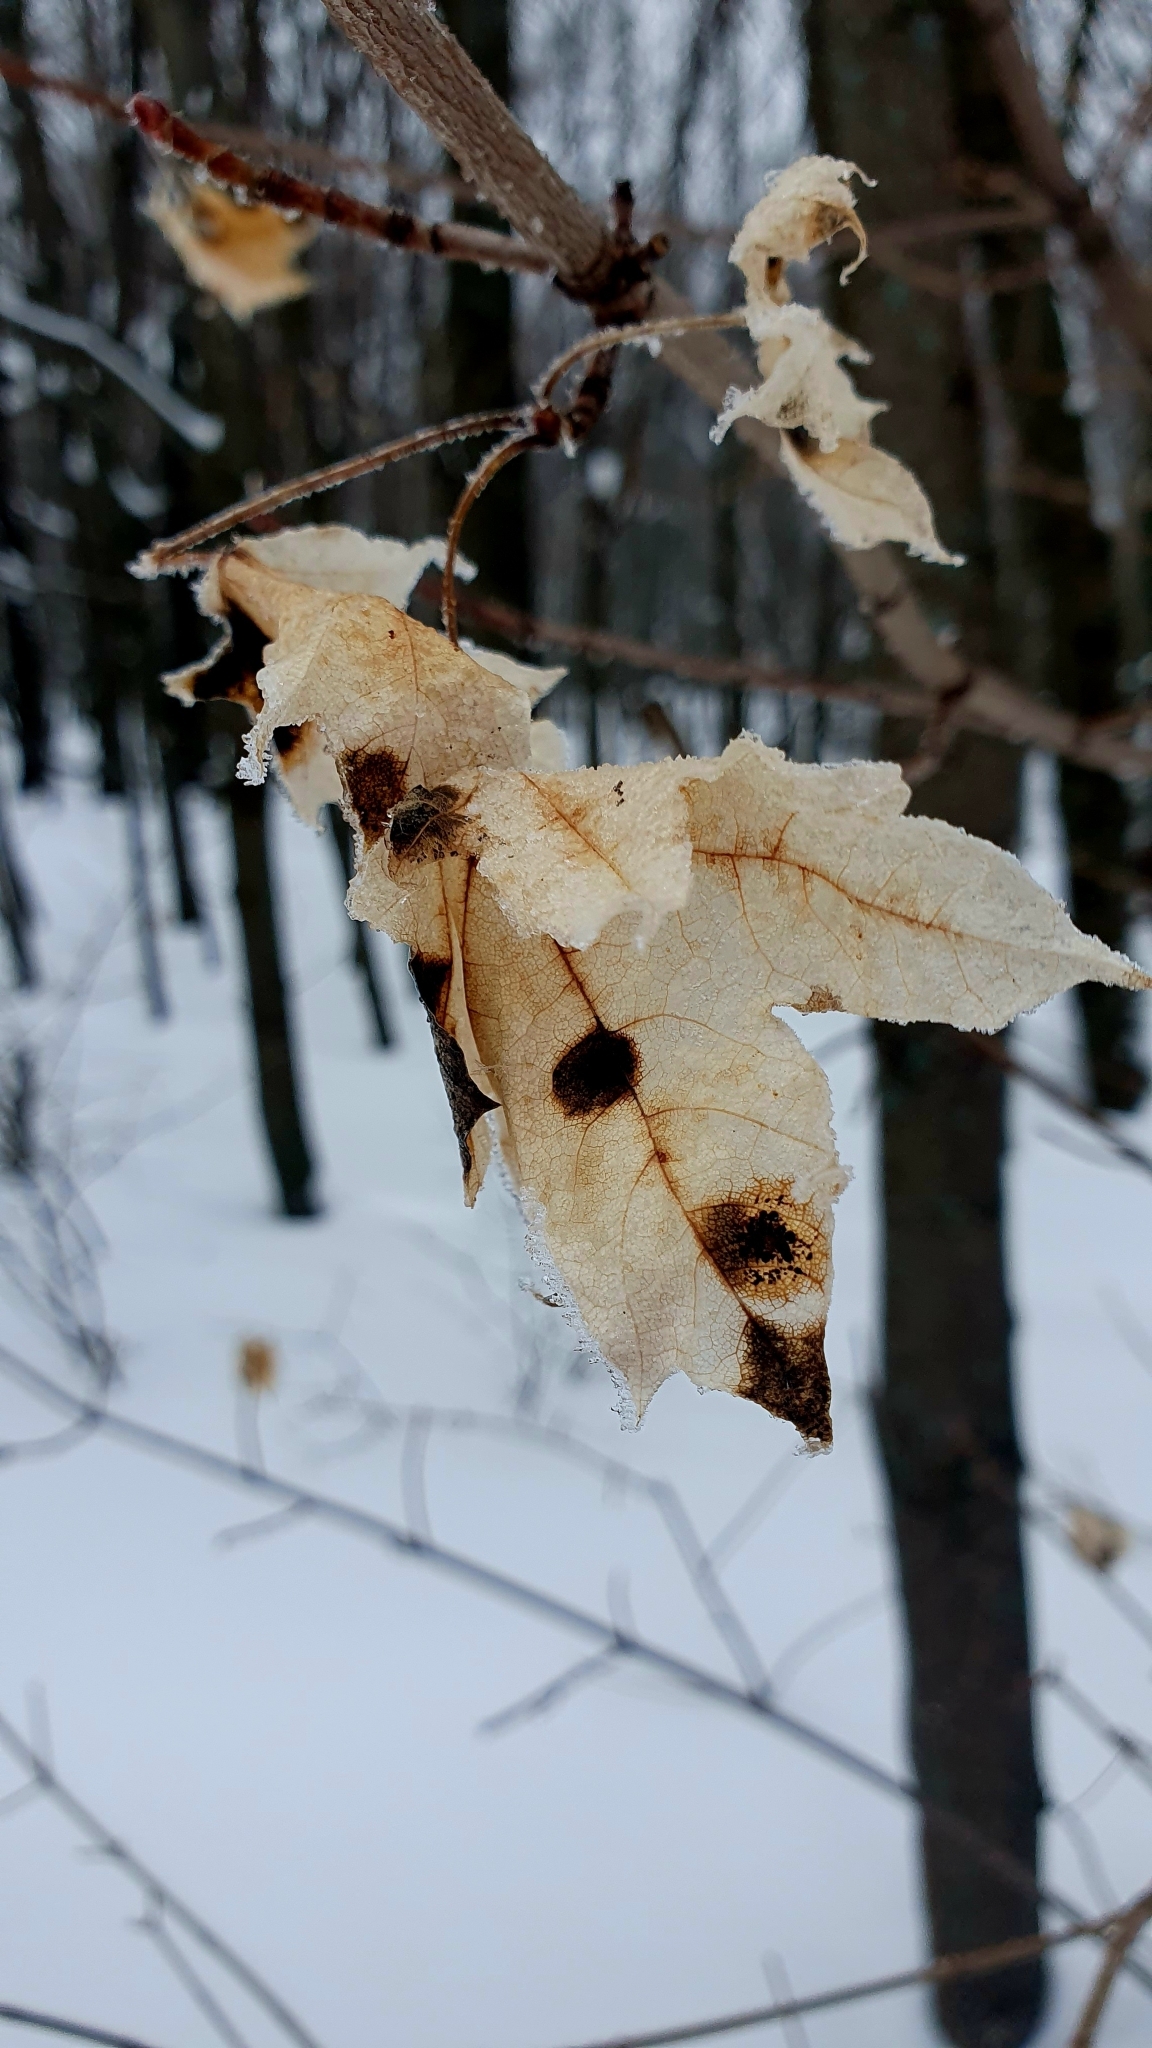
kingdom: Plantae
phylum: Tracheophyta
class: Magnoliopsida
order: Sapindales
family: Sapindaceae
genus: Acer
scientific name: Acer platanoides
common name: Norway maple
